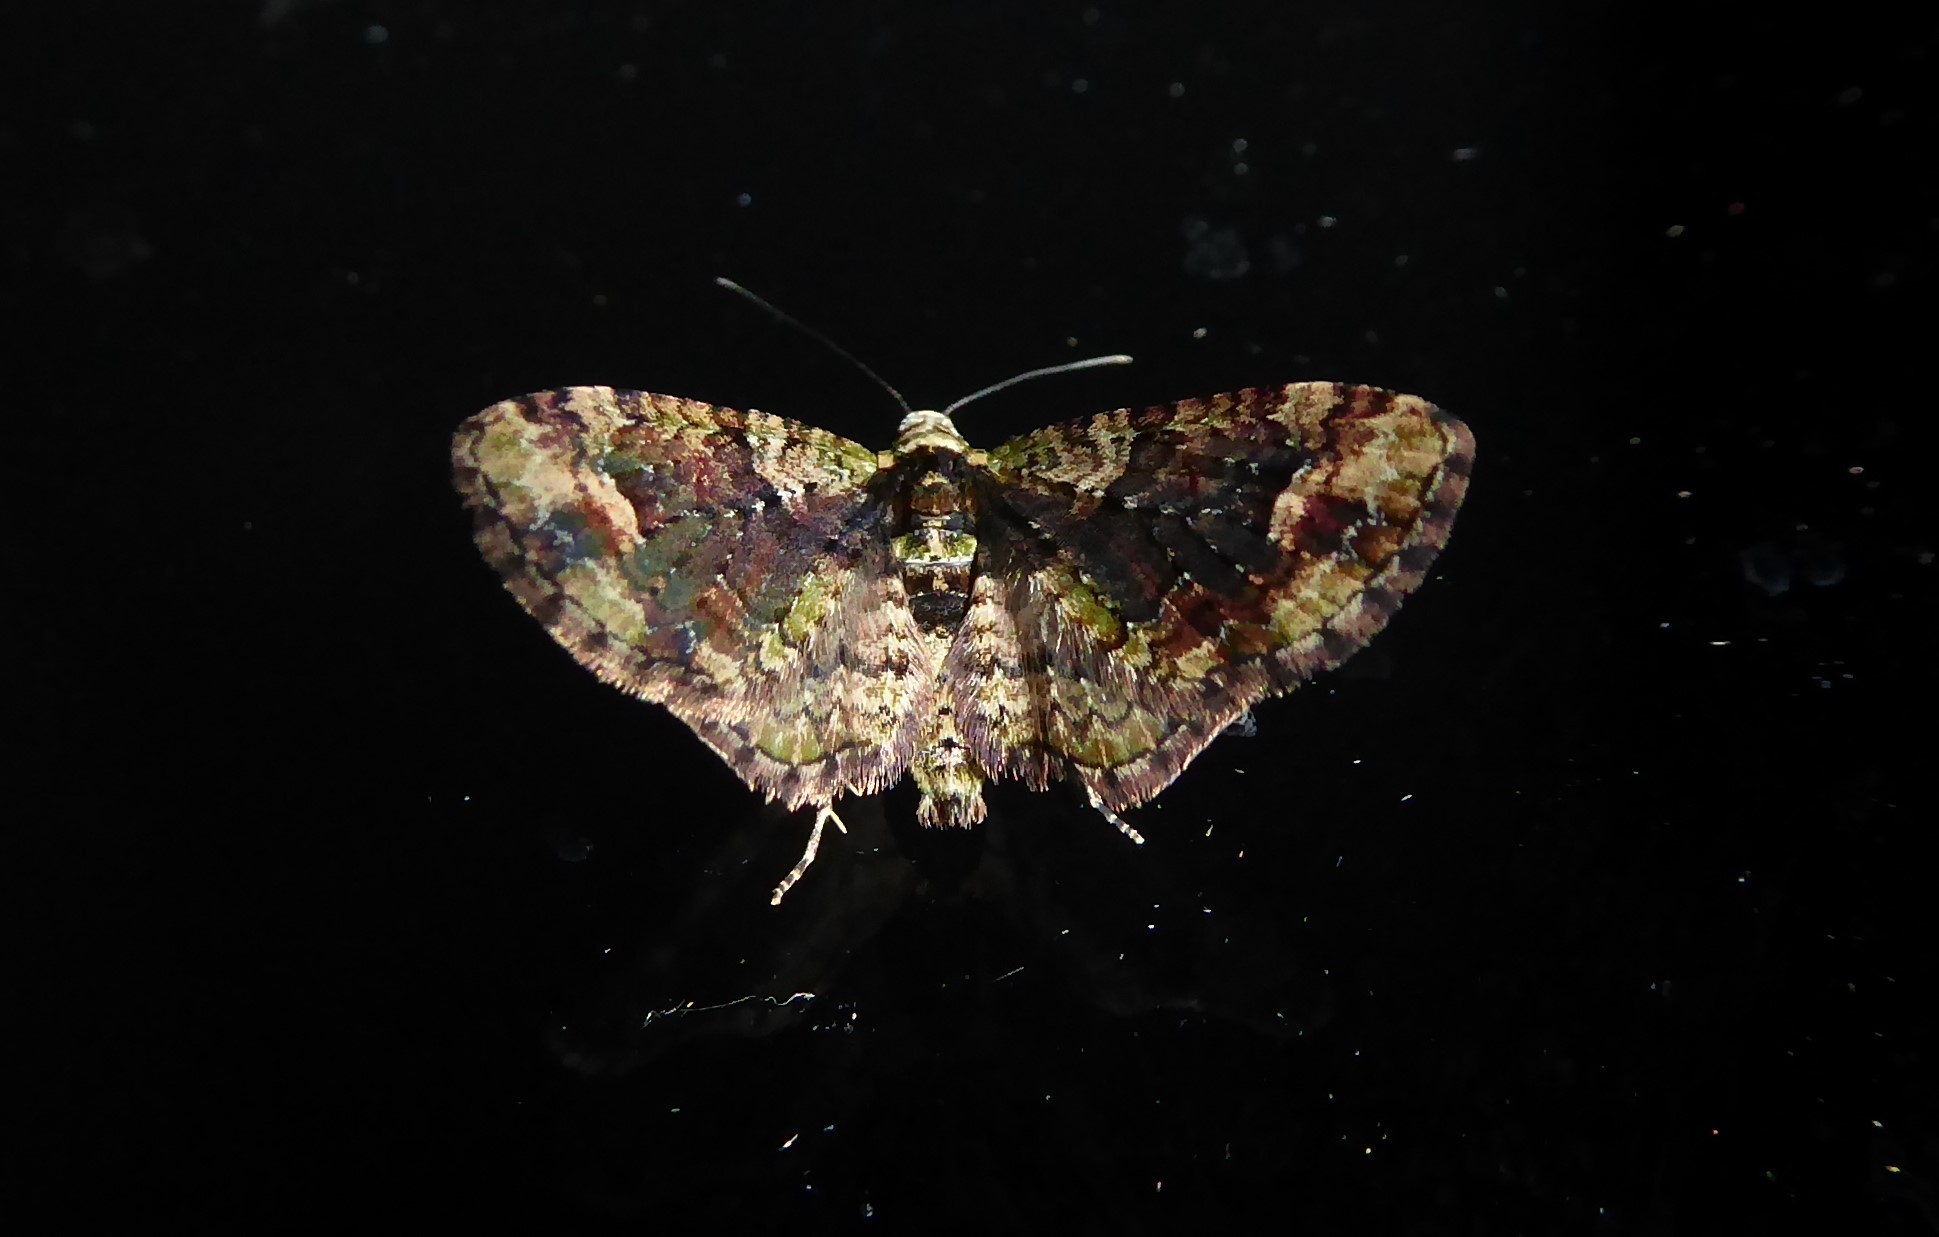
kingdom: Animalia
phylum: Arthropoda
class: Insecta
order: Lepidoptera
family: Geometridae
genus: Idaea
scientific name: Idaea mutanda
